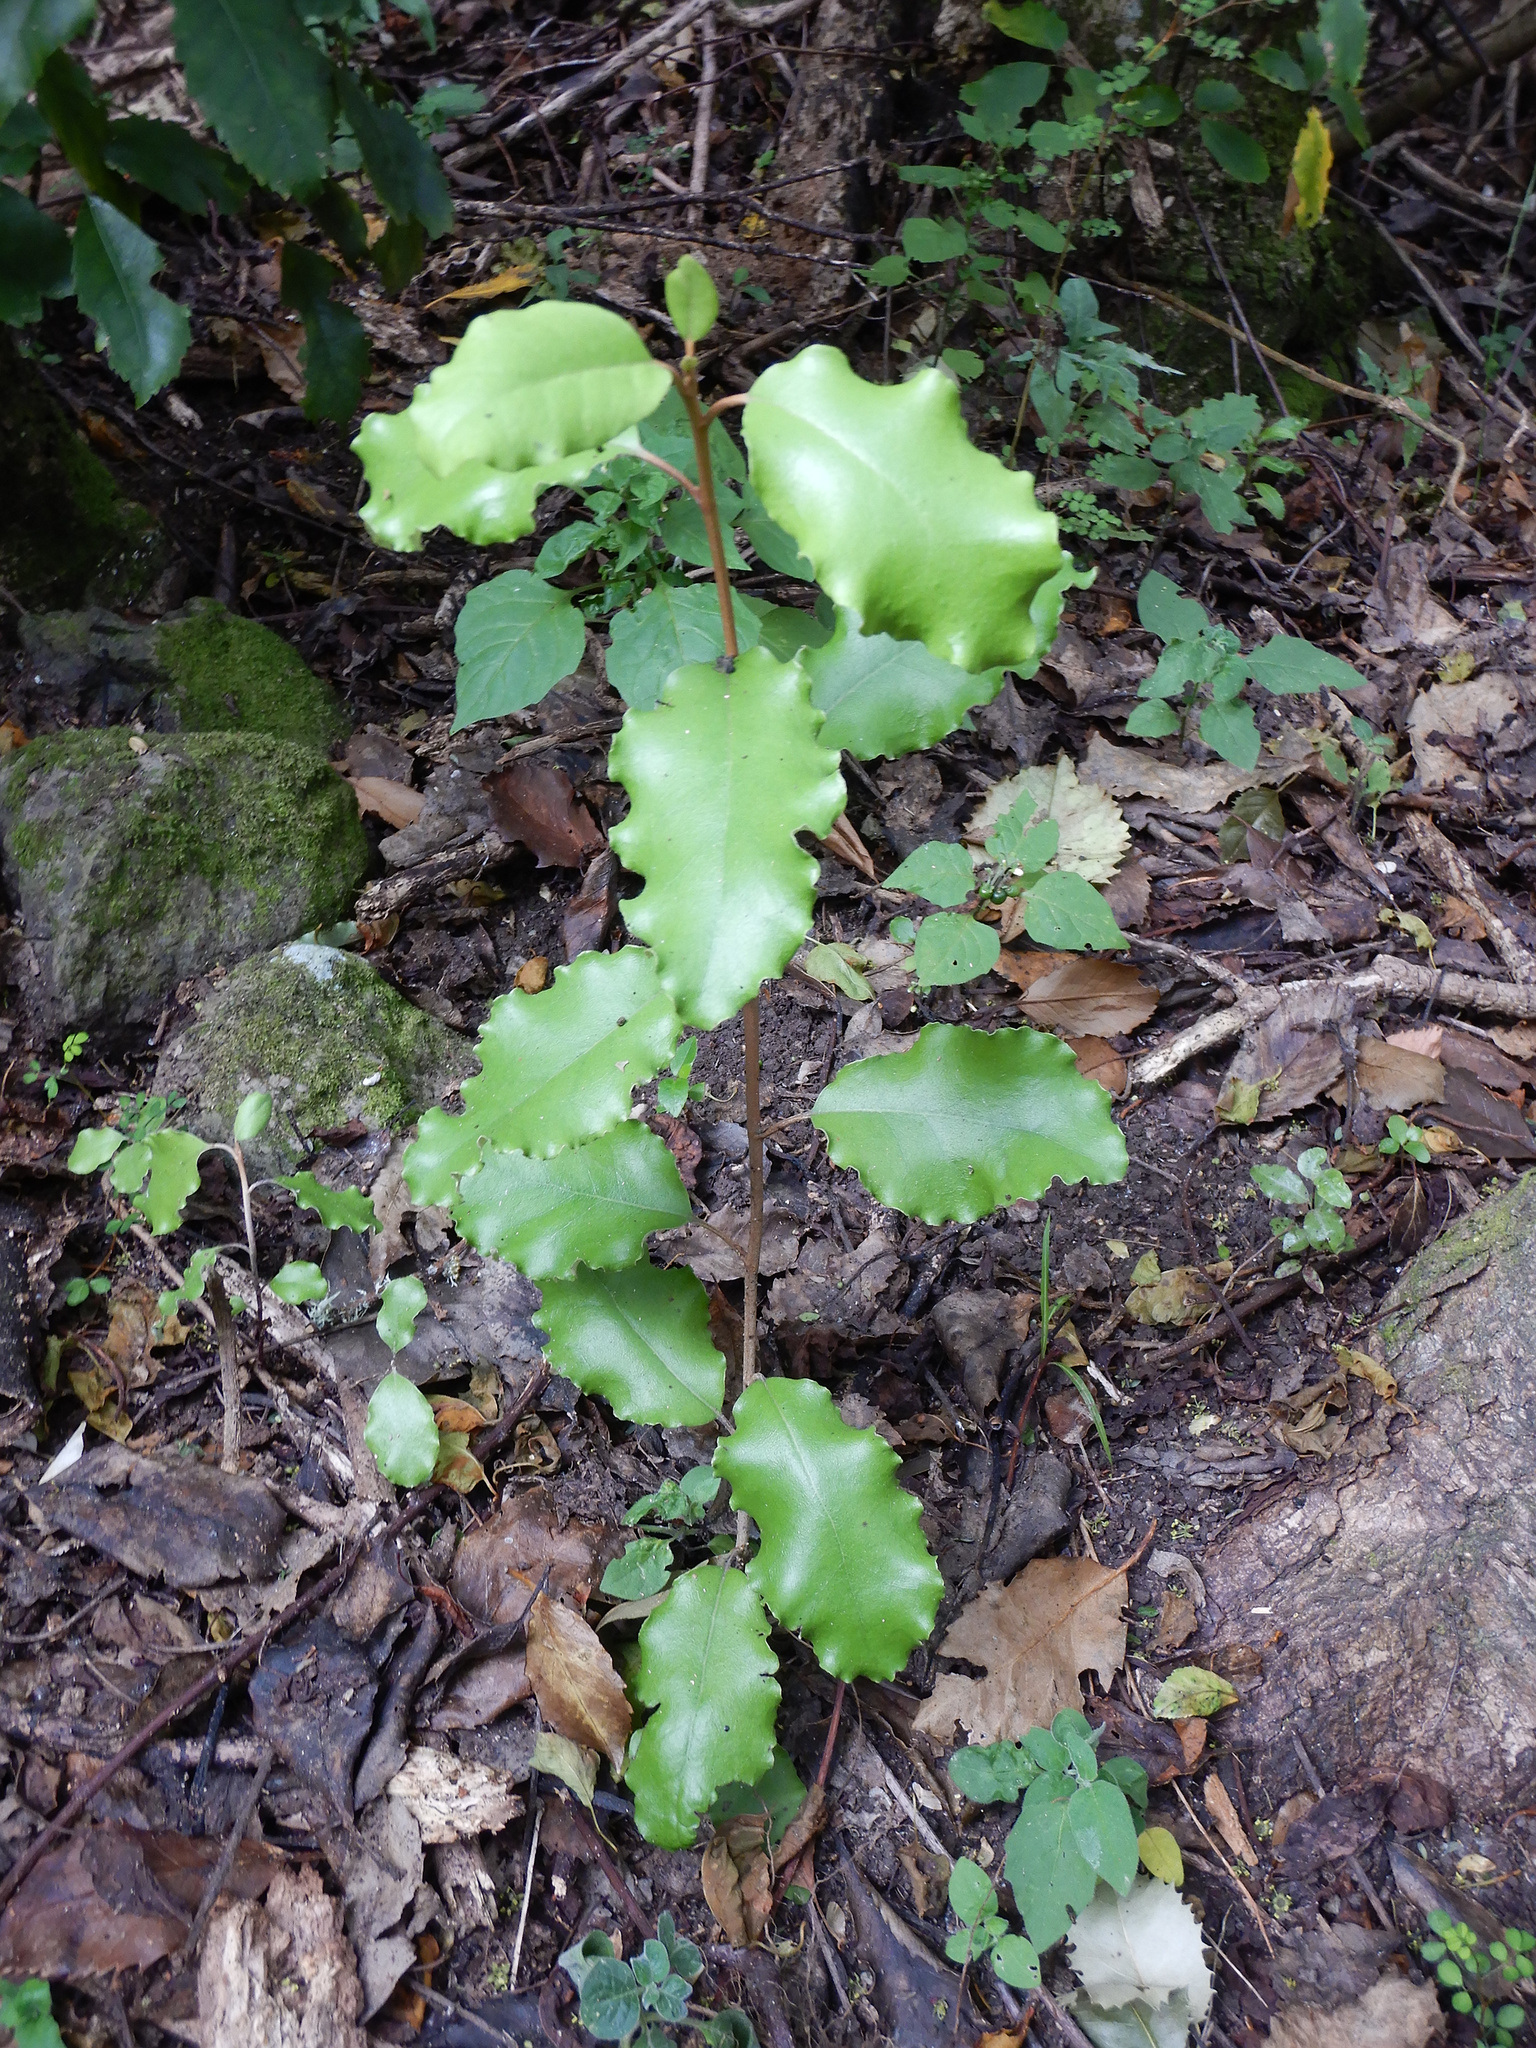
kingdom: Plantae
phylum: Tracheophyta
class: Magnoliopsida
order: Asterales
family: Asteraceae
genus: Olearia
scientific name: Olearia paniculata
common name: Akiraho
